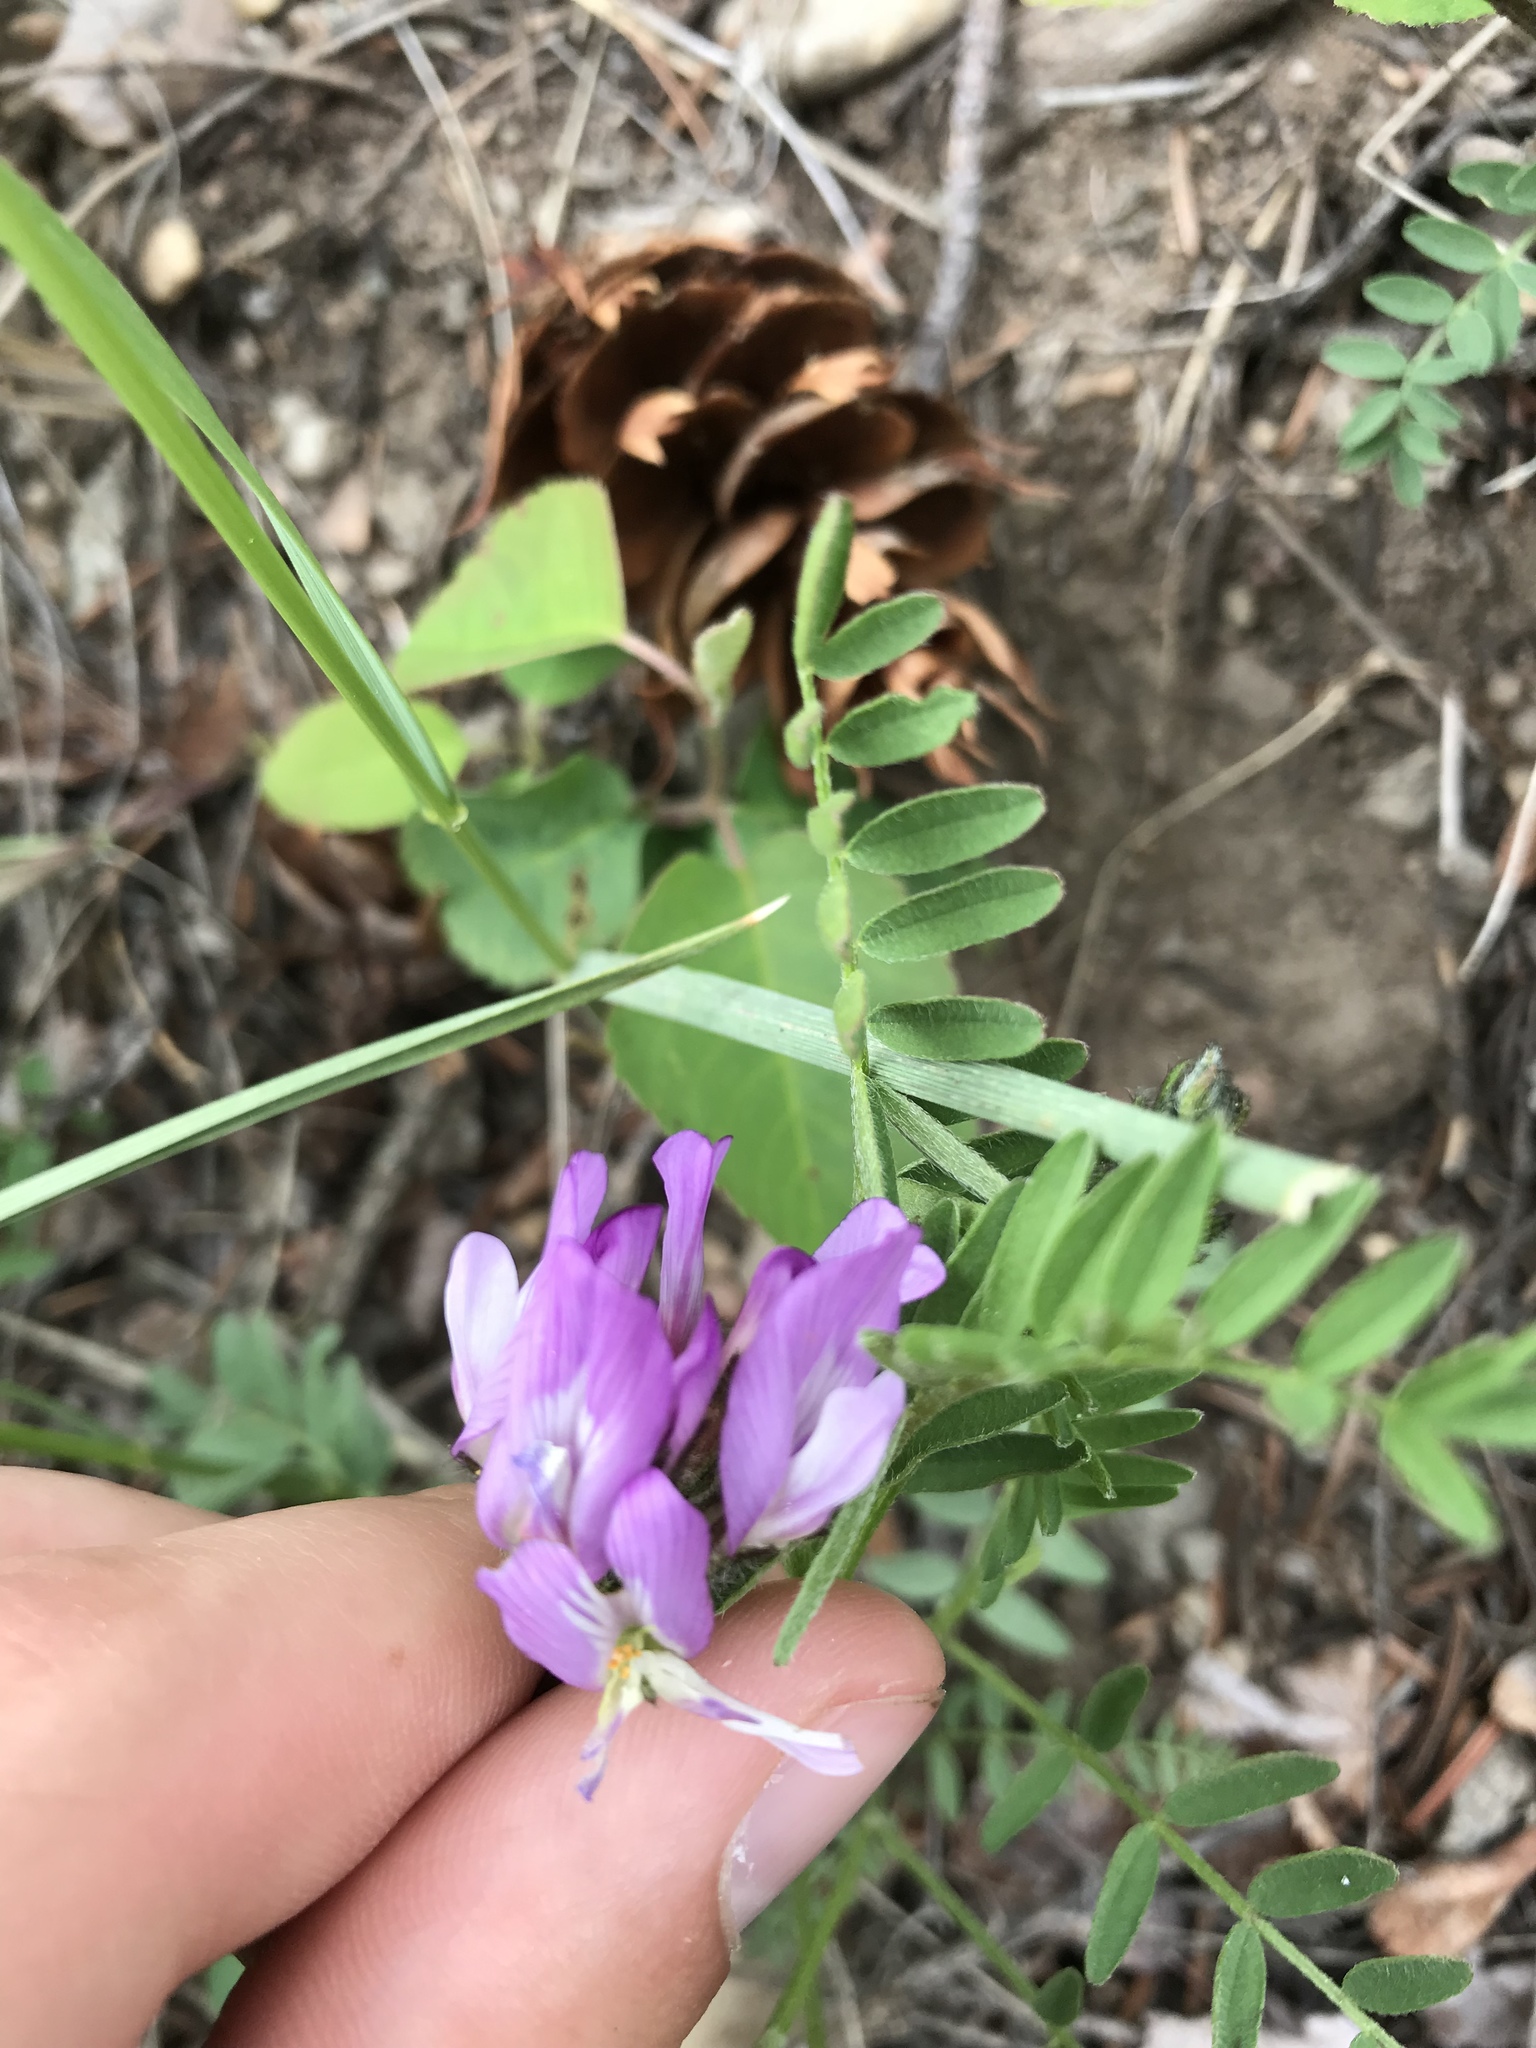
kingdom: Plantae
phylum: Tracheophyta
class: Magnoliopsida
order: Fabales
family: Fabaceae
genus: Astragalus
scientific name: Astragalus agrestis
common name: Field milk-vetch
